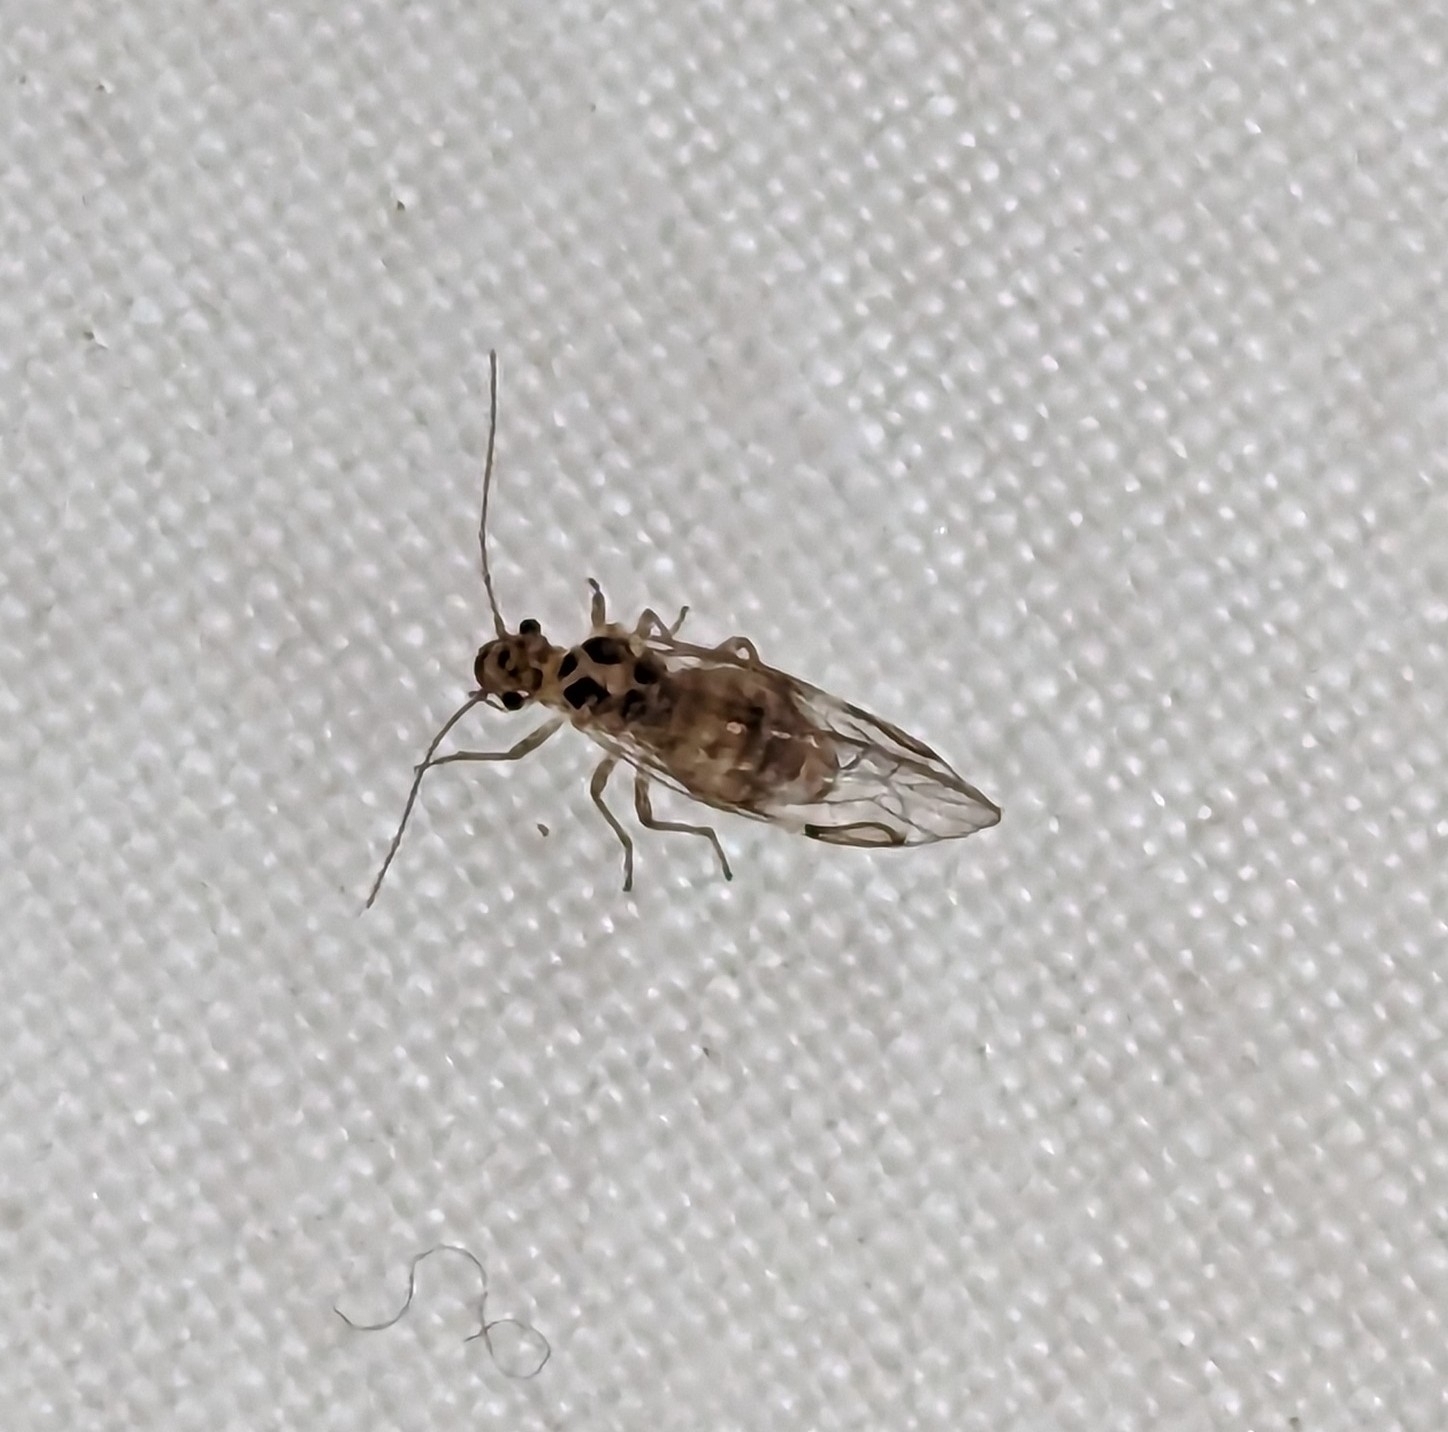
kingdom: Animalia
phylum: Arthropoda
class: Insecta
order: Psocodea
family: Dasydemellidae
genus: Teliapsocus
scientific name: Teliapsocus conterminus
